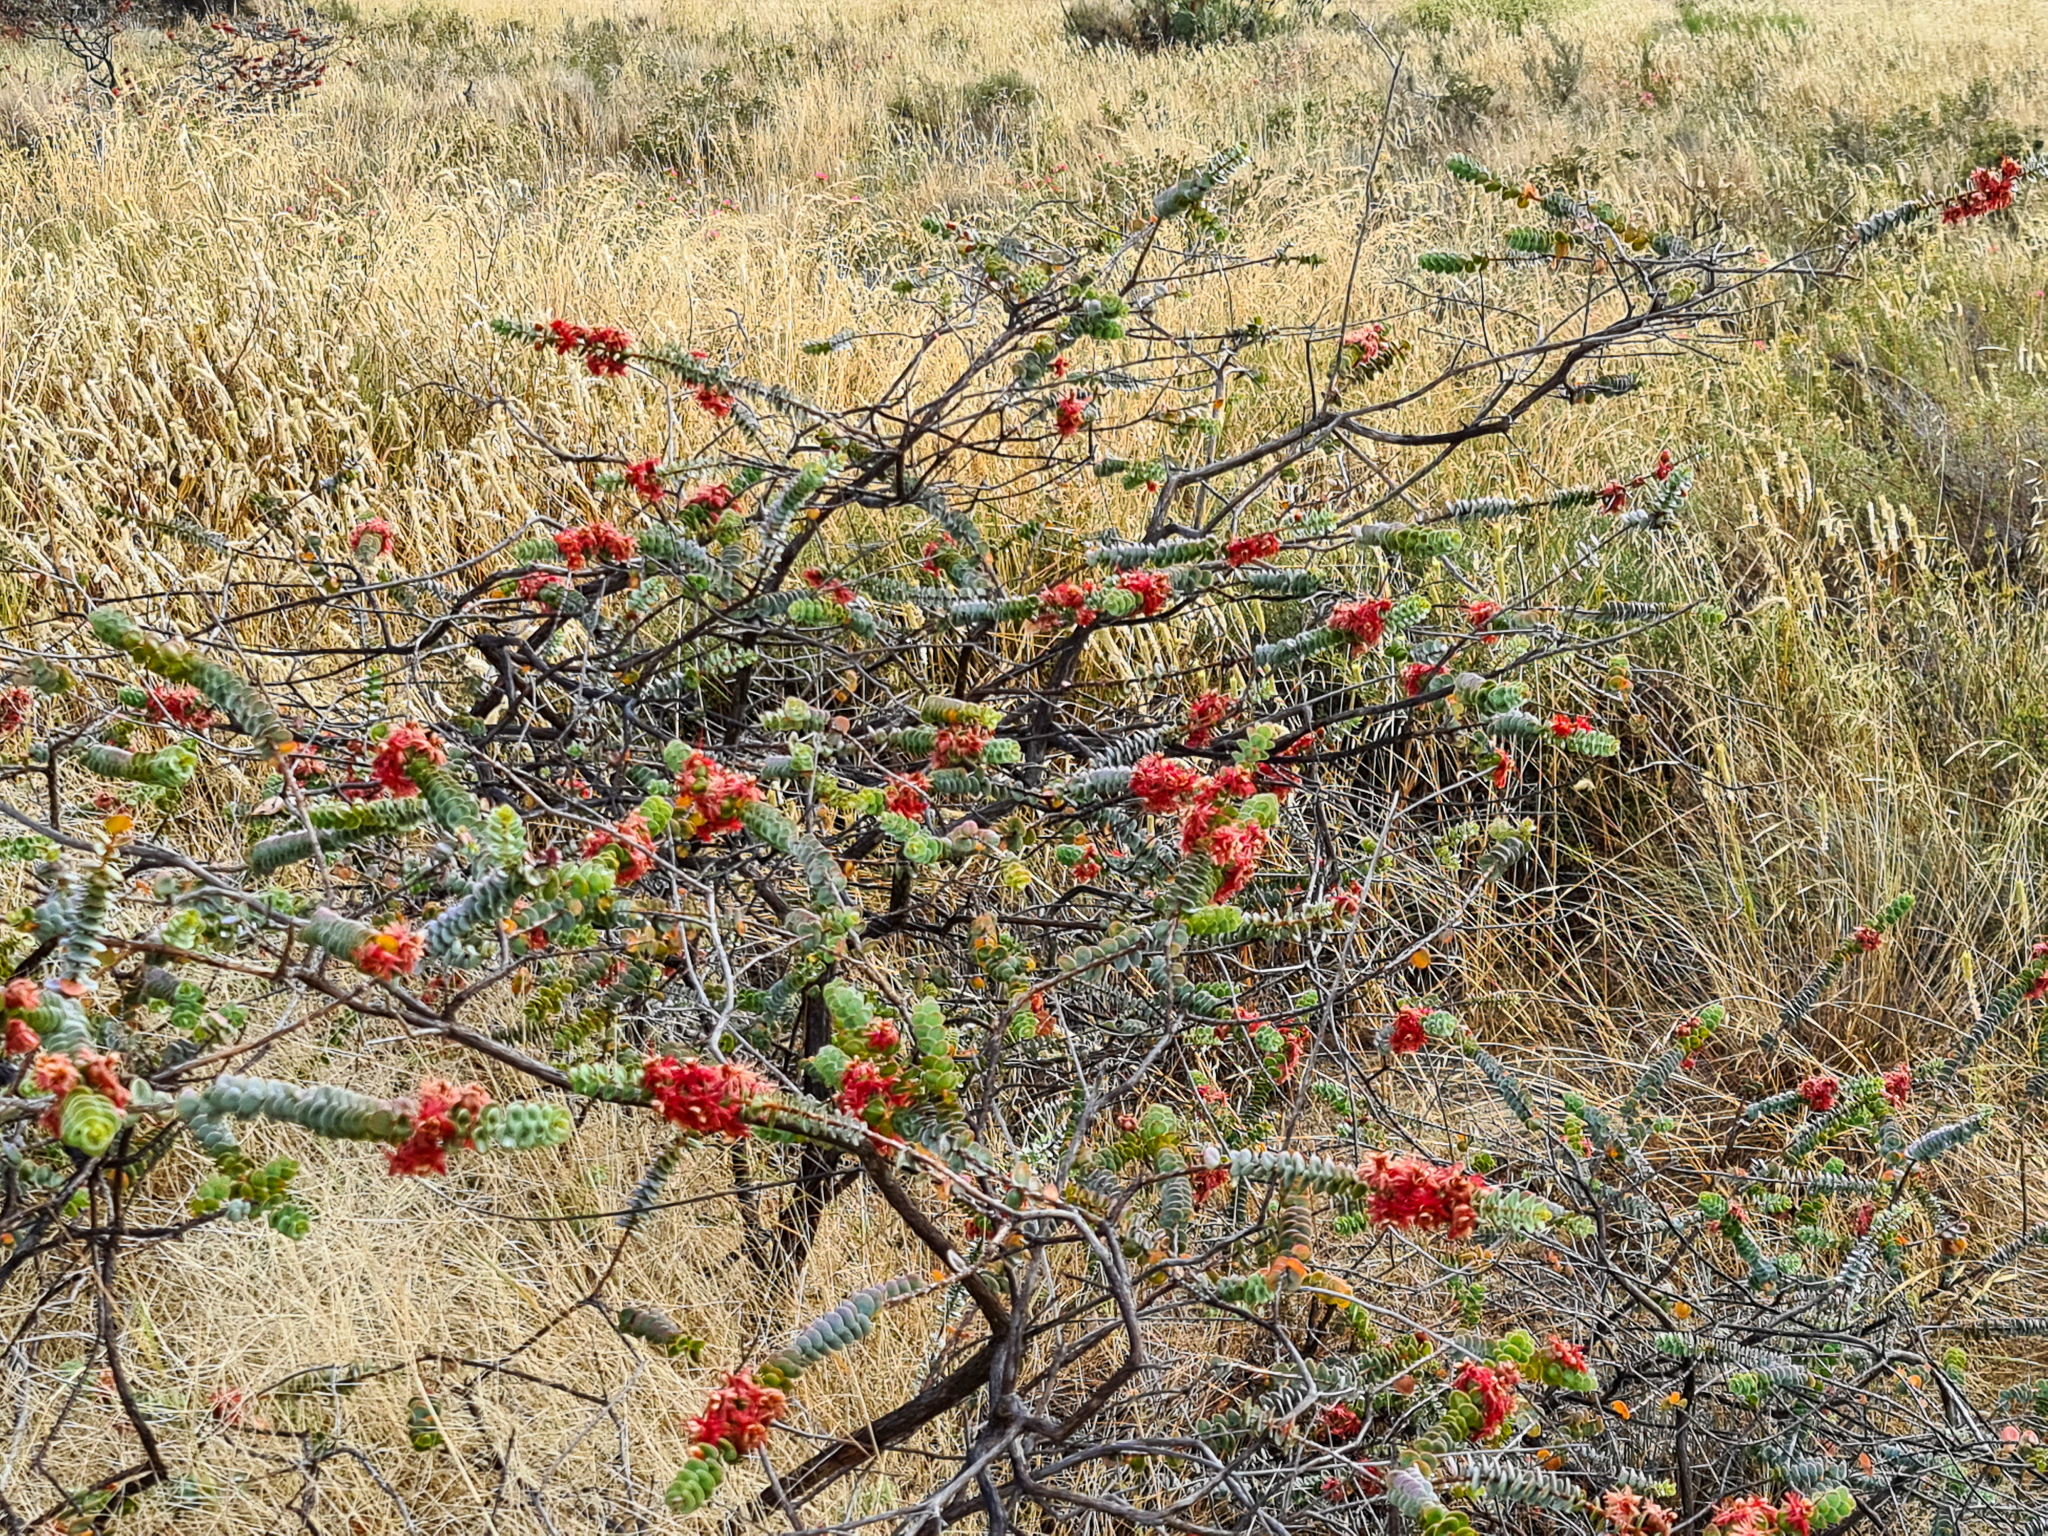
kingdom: Plantae
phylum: Tracheophyta
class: Magnoliopsida
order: Myrtales
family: Myrtaceae
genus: Verticordia
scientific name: Verticordia grandis
